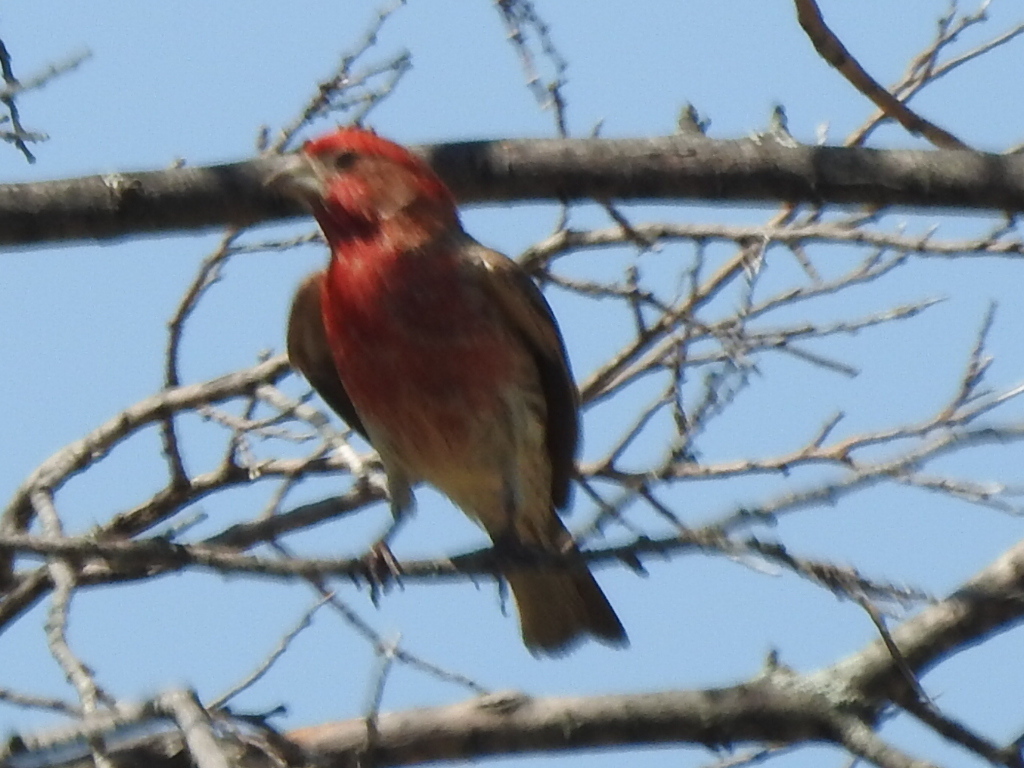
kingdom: Animalia
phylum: Chordata
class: Aves
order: Passeriformes
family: Fringillidae
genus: Haemorhous
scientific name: Haemorhous mexicanus
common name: House finch
